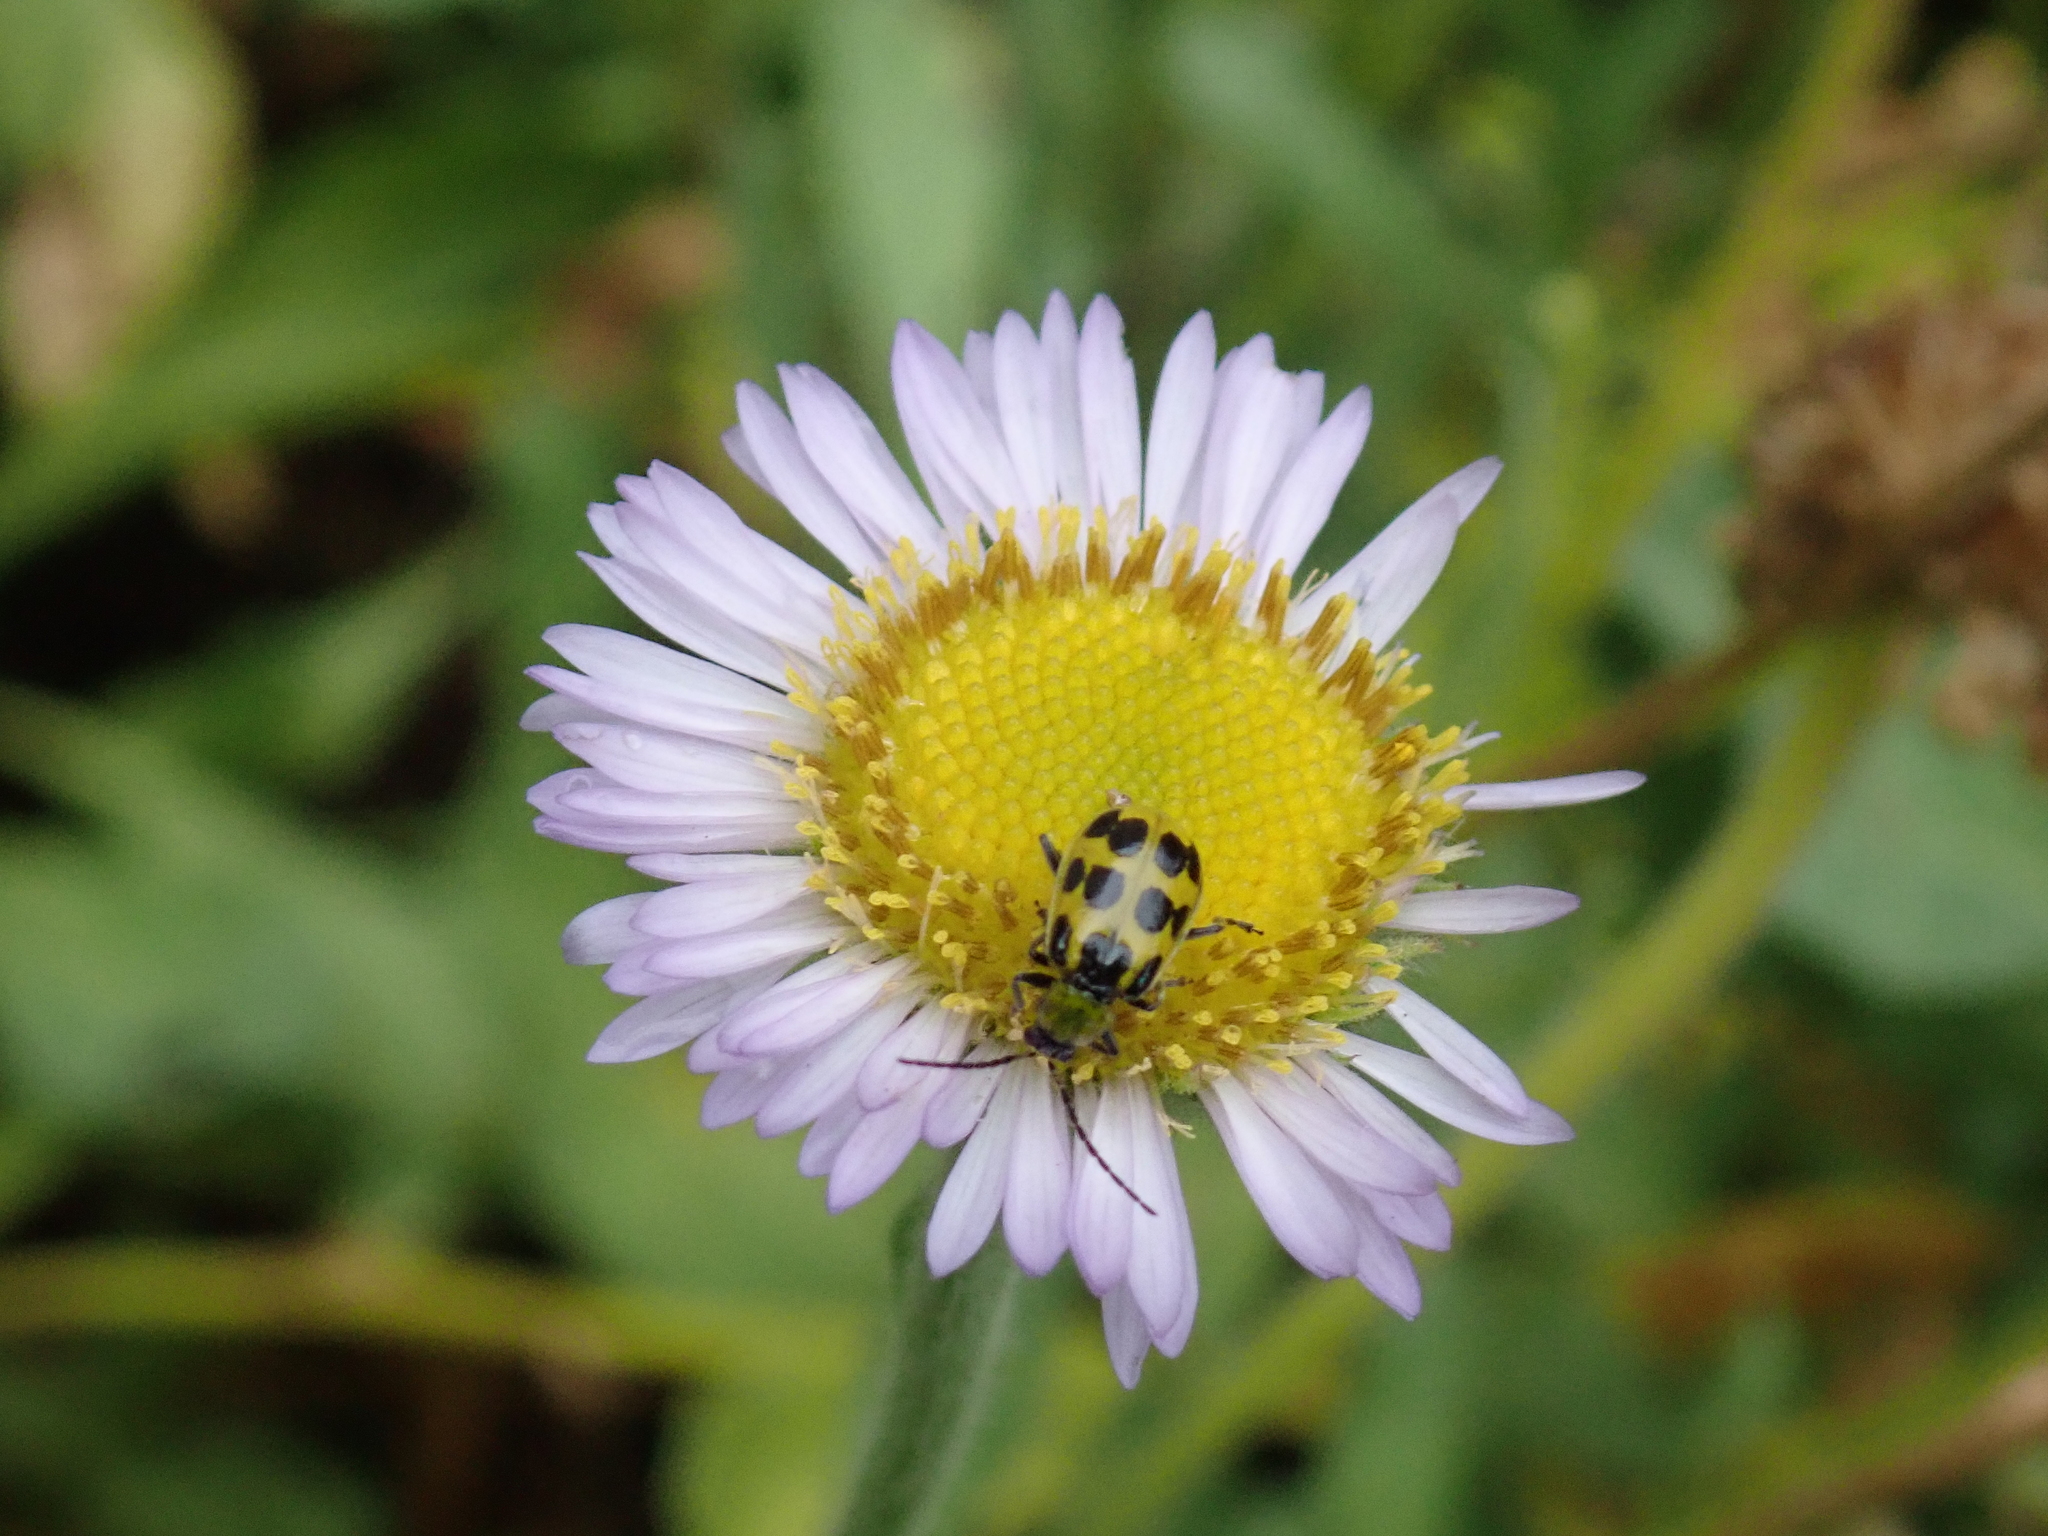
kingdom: Animalia
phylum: Arthropoda
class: Insecta
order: Coleoptera
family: Chrysomelidae
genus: Diabrotica
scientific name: Diabrotica undecimpunctata
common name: Spotted cucumber beetle
